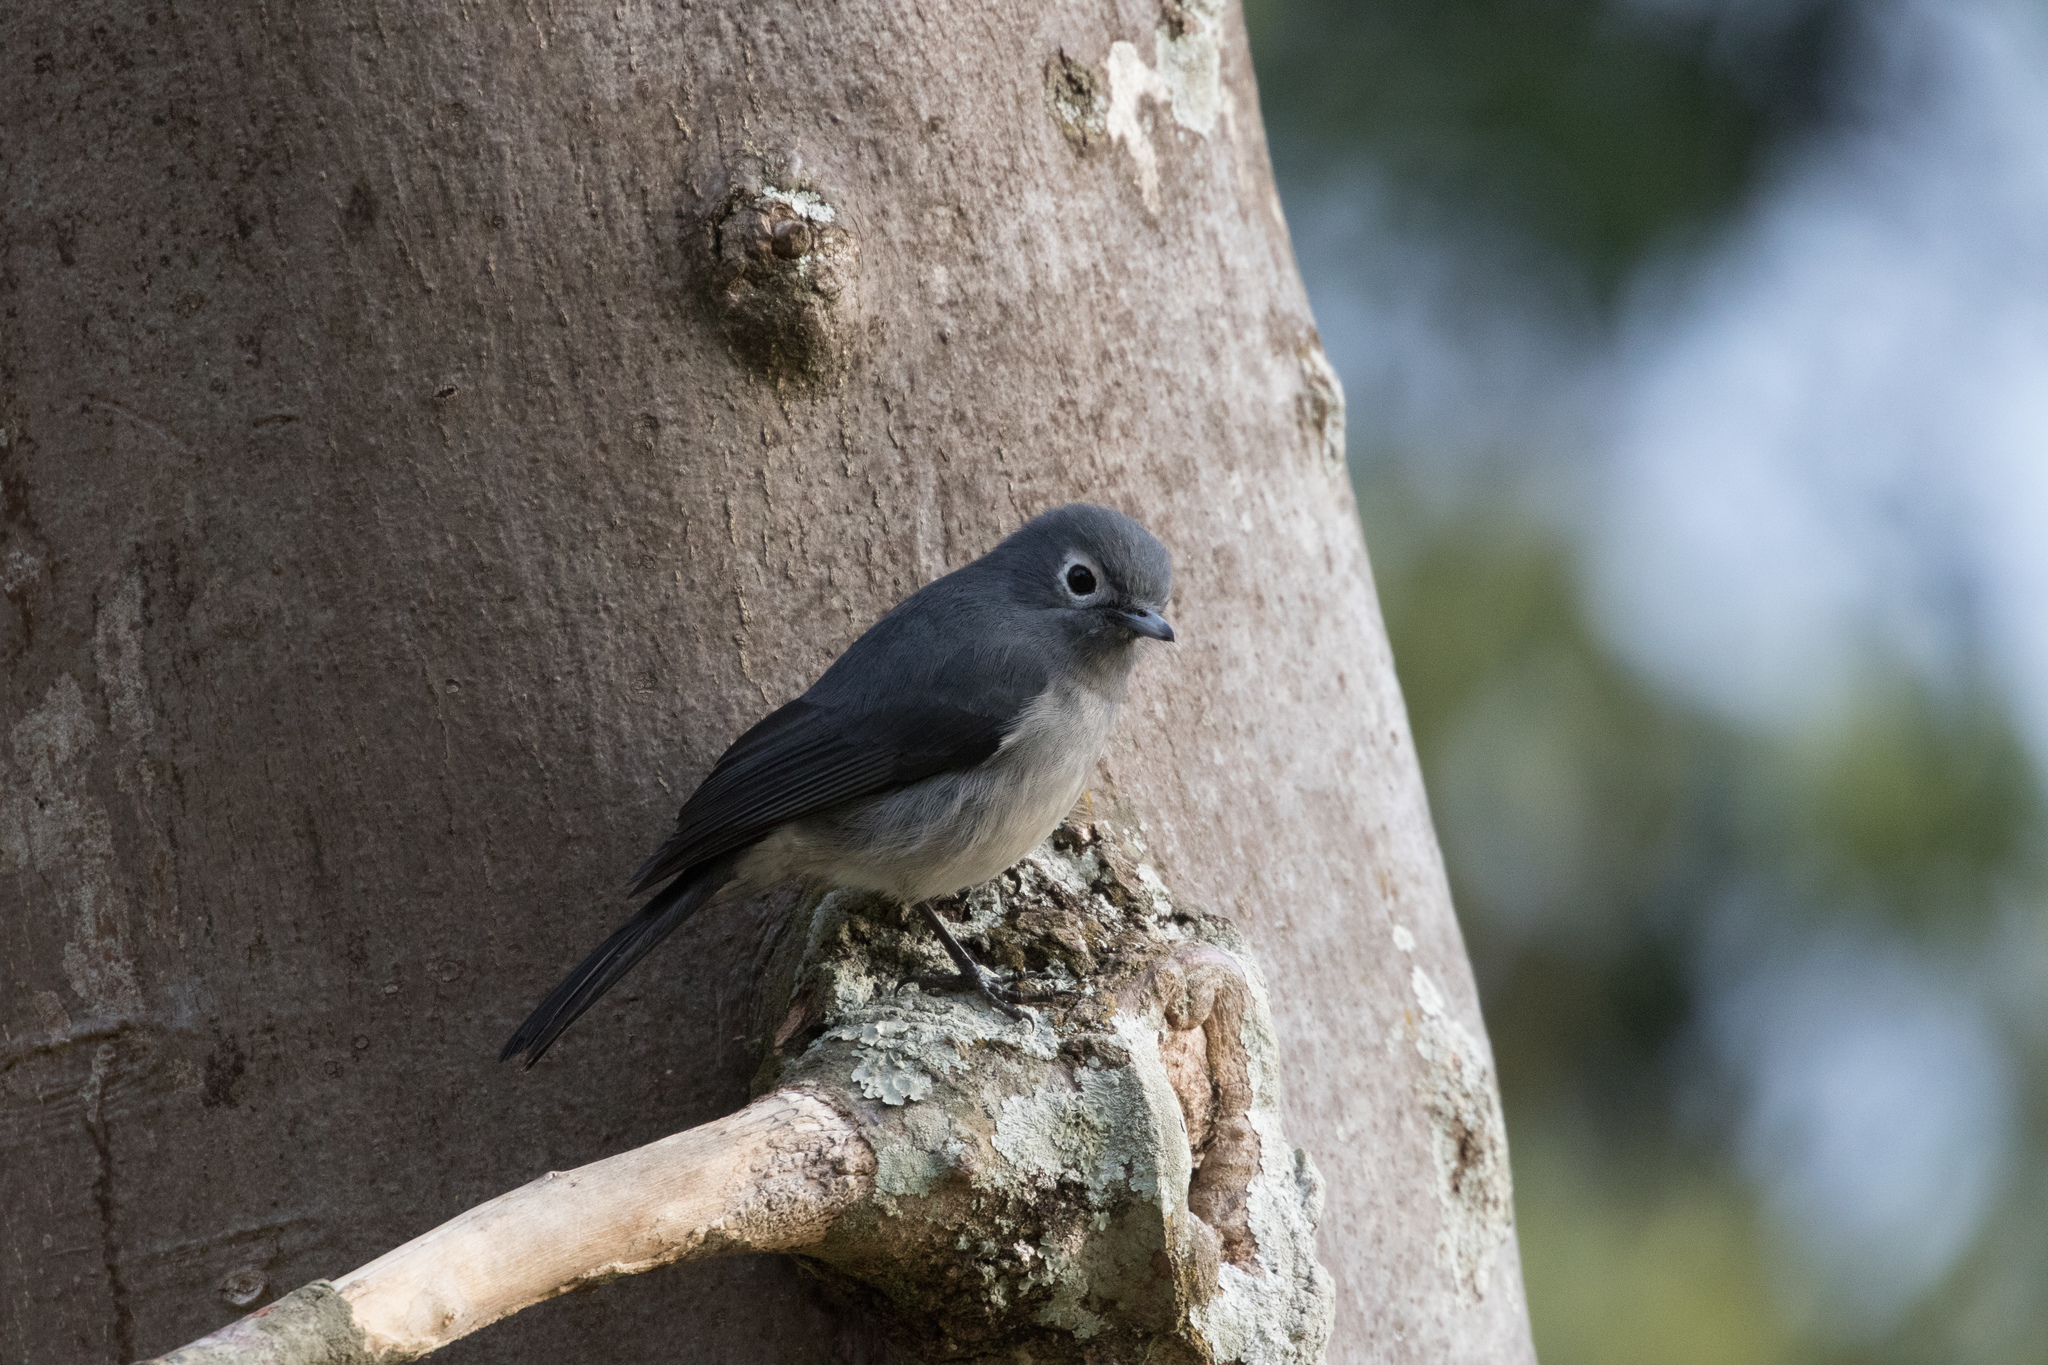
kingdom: Animalia
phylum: Chordata
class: Aves
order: Passeriformes
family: Muscicapidae
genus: Dioptrornis
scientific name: Dioptrornis fischeri
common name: White-eyed slaty flycatcher
